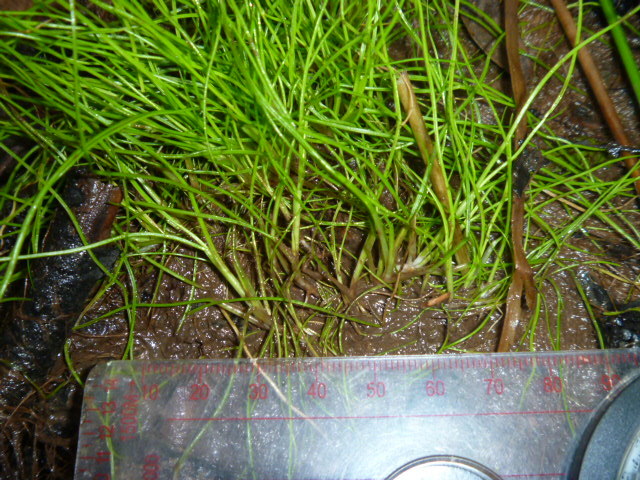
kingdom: Plantae
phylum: Tracheophyta
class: Liliopsida
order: Poales
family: Cyperaceae
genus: Isolepis
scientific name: Isolepis reticularis
